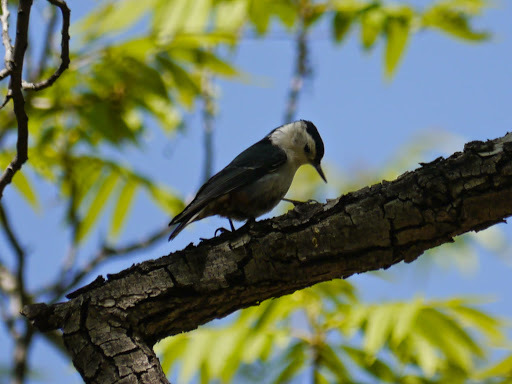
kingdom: Animalia
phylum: Chordata
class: Aves
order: Passeriformes
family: Sittidae
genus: Sitta
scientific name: Sitta carolinensis
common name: White-breasted nuthatch
